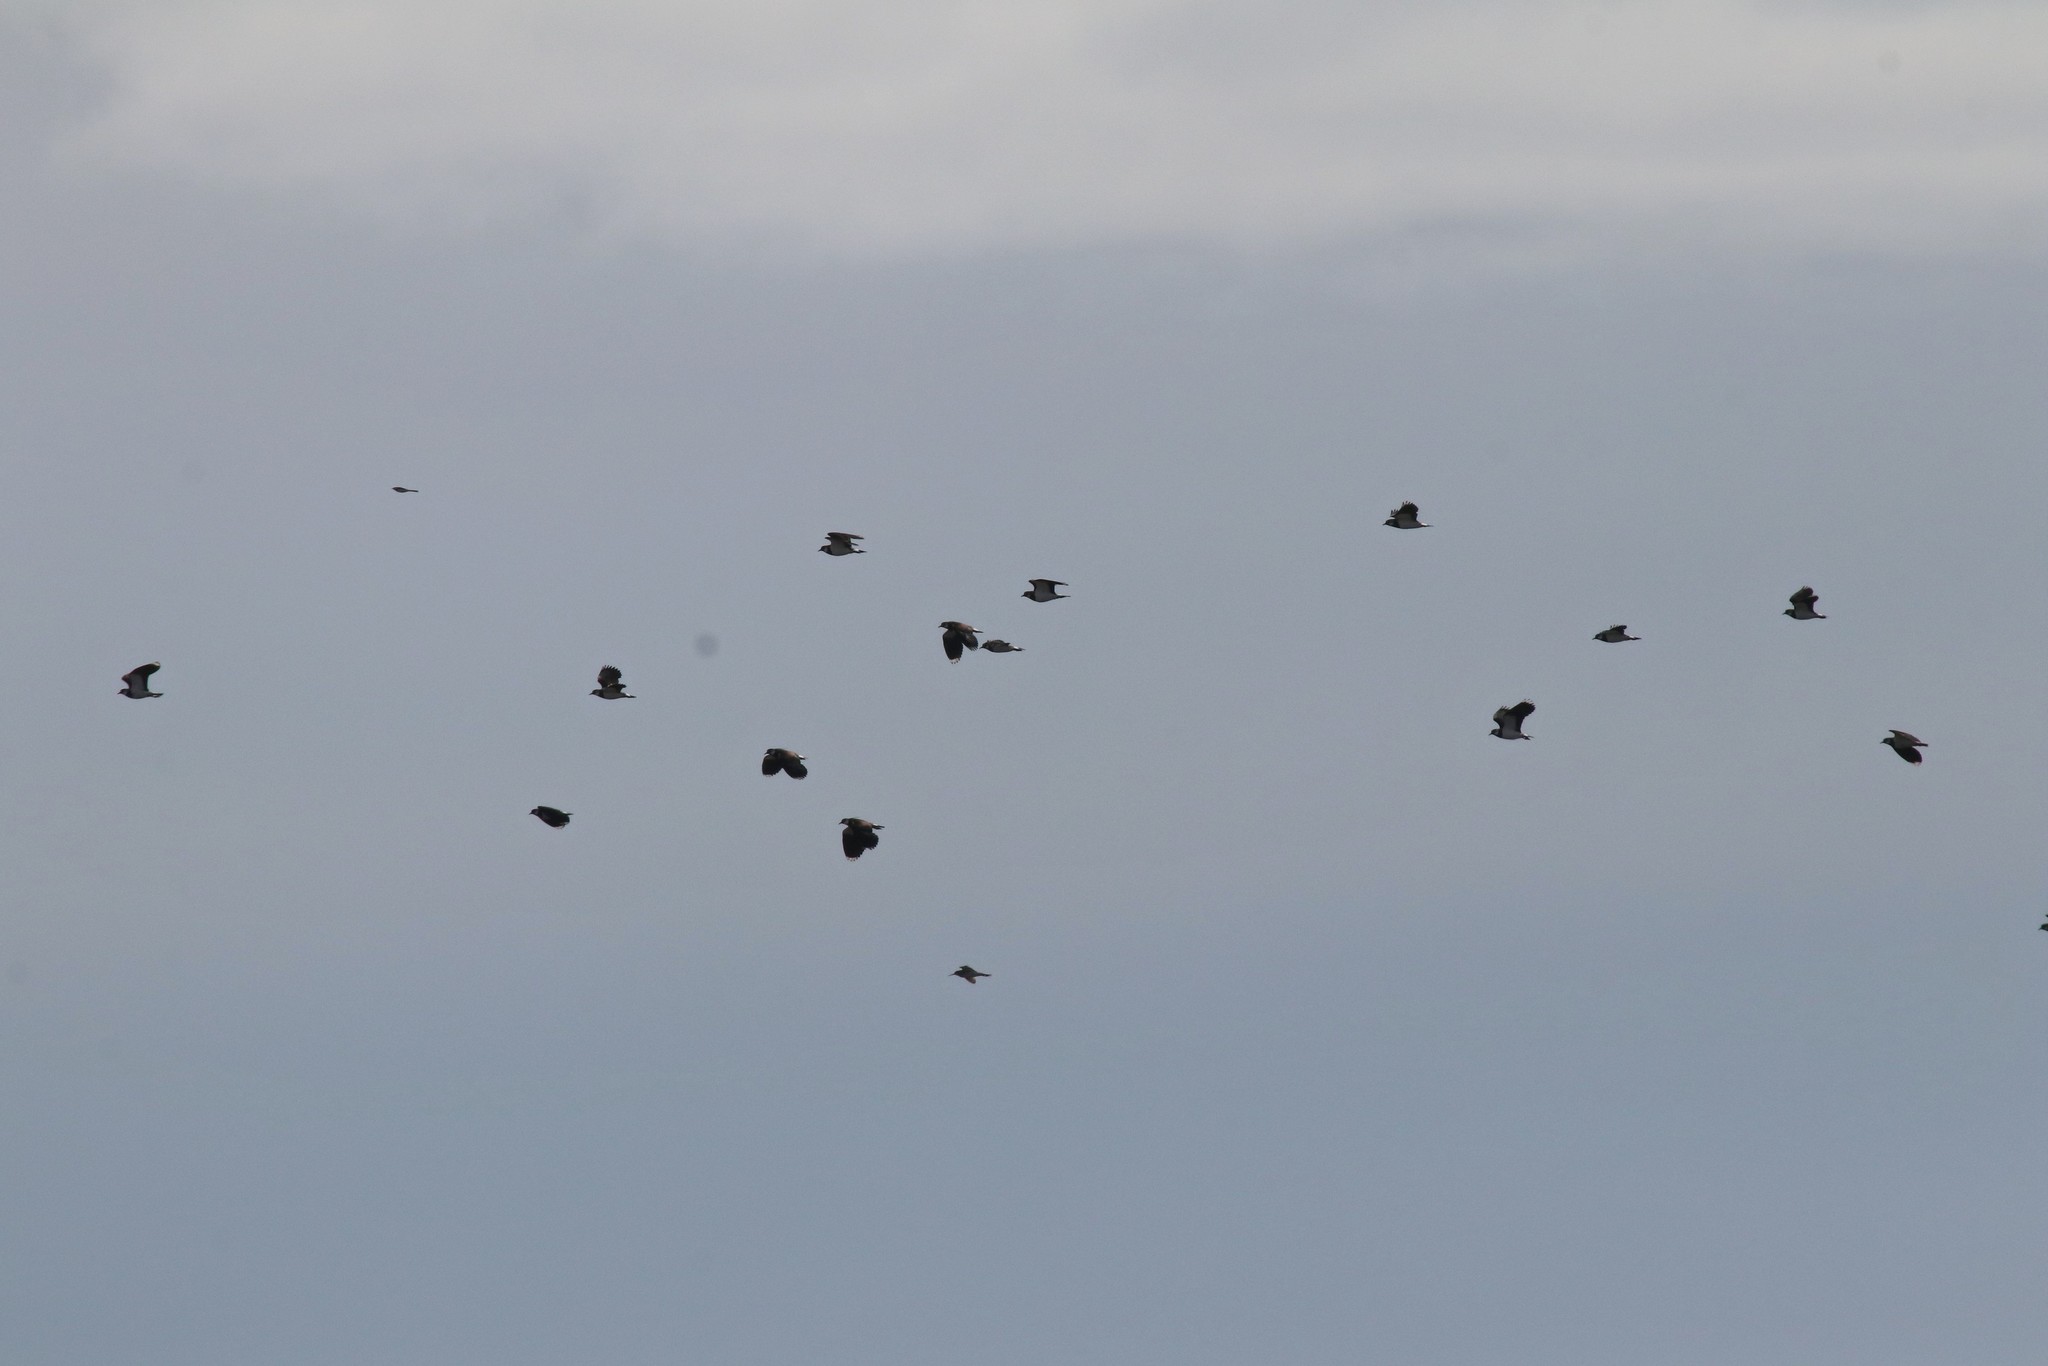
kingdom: Animalia
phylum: Chordata
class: Aves
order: Charadriiformes
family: Charadriidae
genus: Vanellus
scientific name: Vanellus vanellus
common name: Northern lapwing
